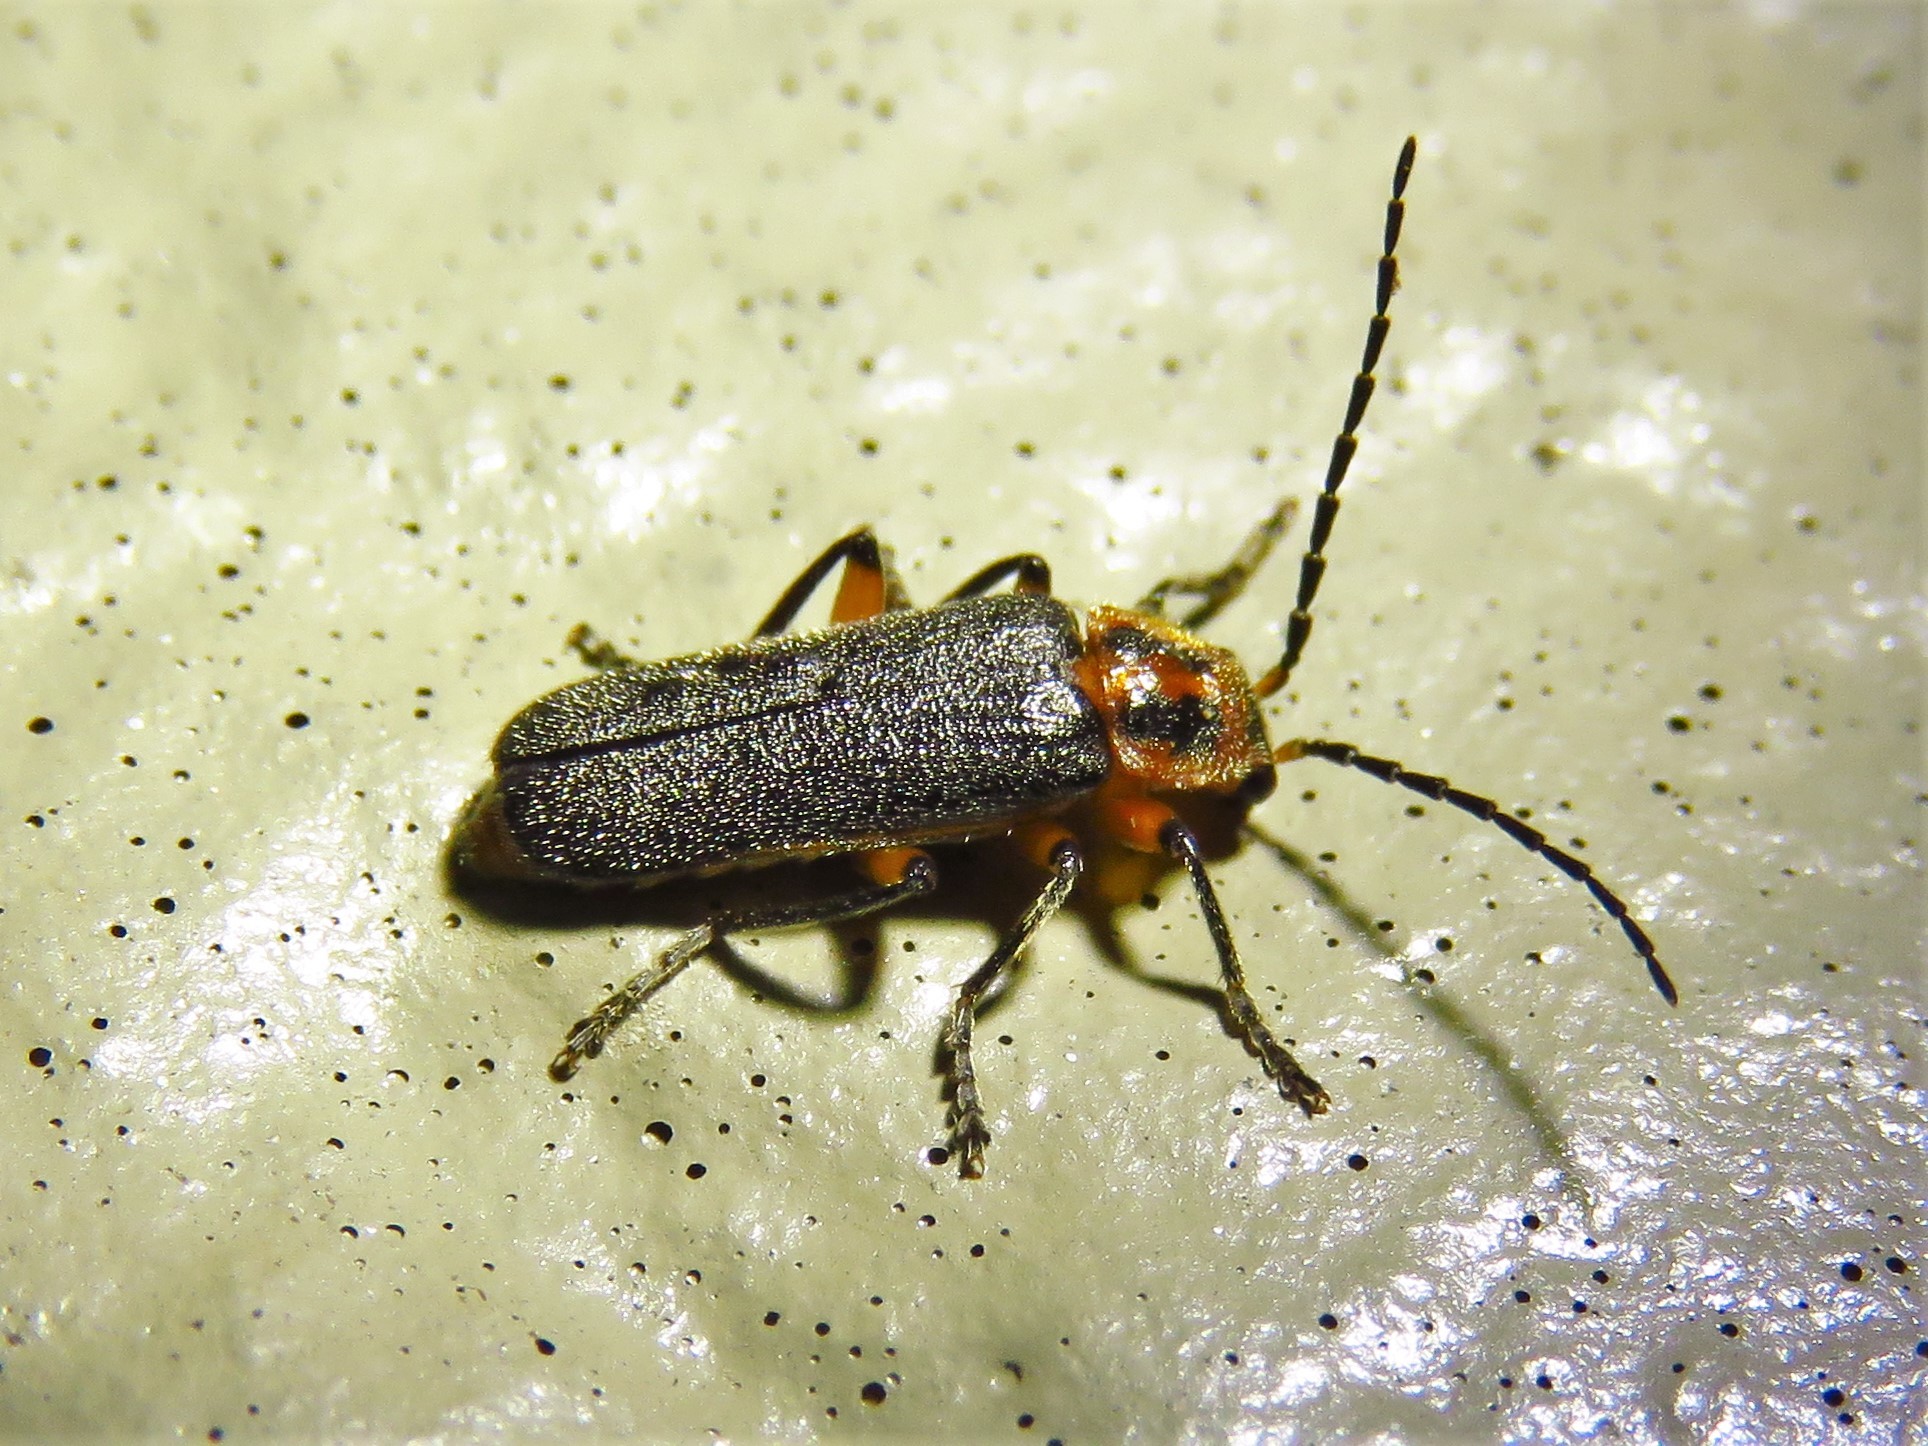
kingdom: Animalia
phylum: Arthropoda
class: Insecta
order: Coleoptera
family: Cantharidae
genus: Atalantycha
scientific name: Atalantycha bilineata
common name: Two-lined leatherwing
